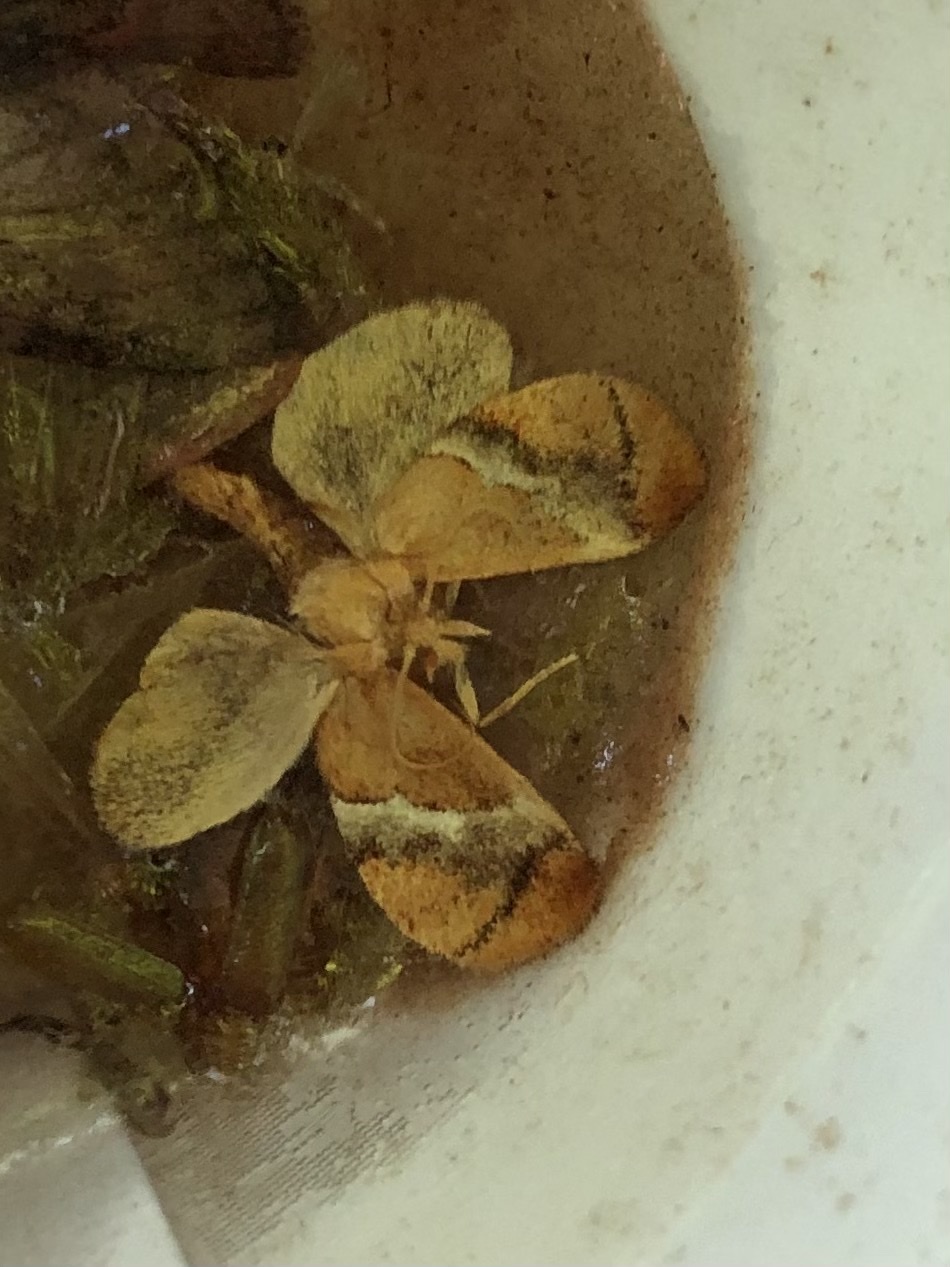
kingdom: Animalia
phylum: Arthropoda
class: Insecta
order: Lepidoptera
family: Limacodidae
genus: Lithacodes
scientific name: Lithacodes fasciola
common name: Yellow-shouldered slug moth
